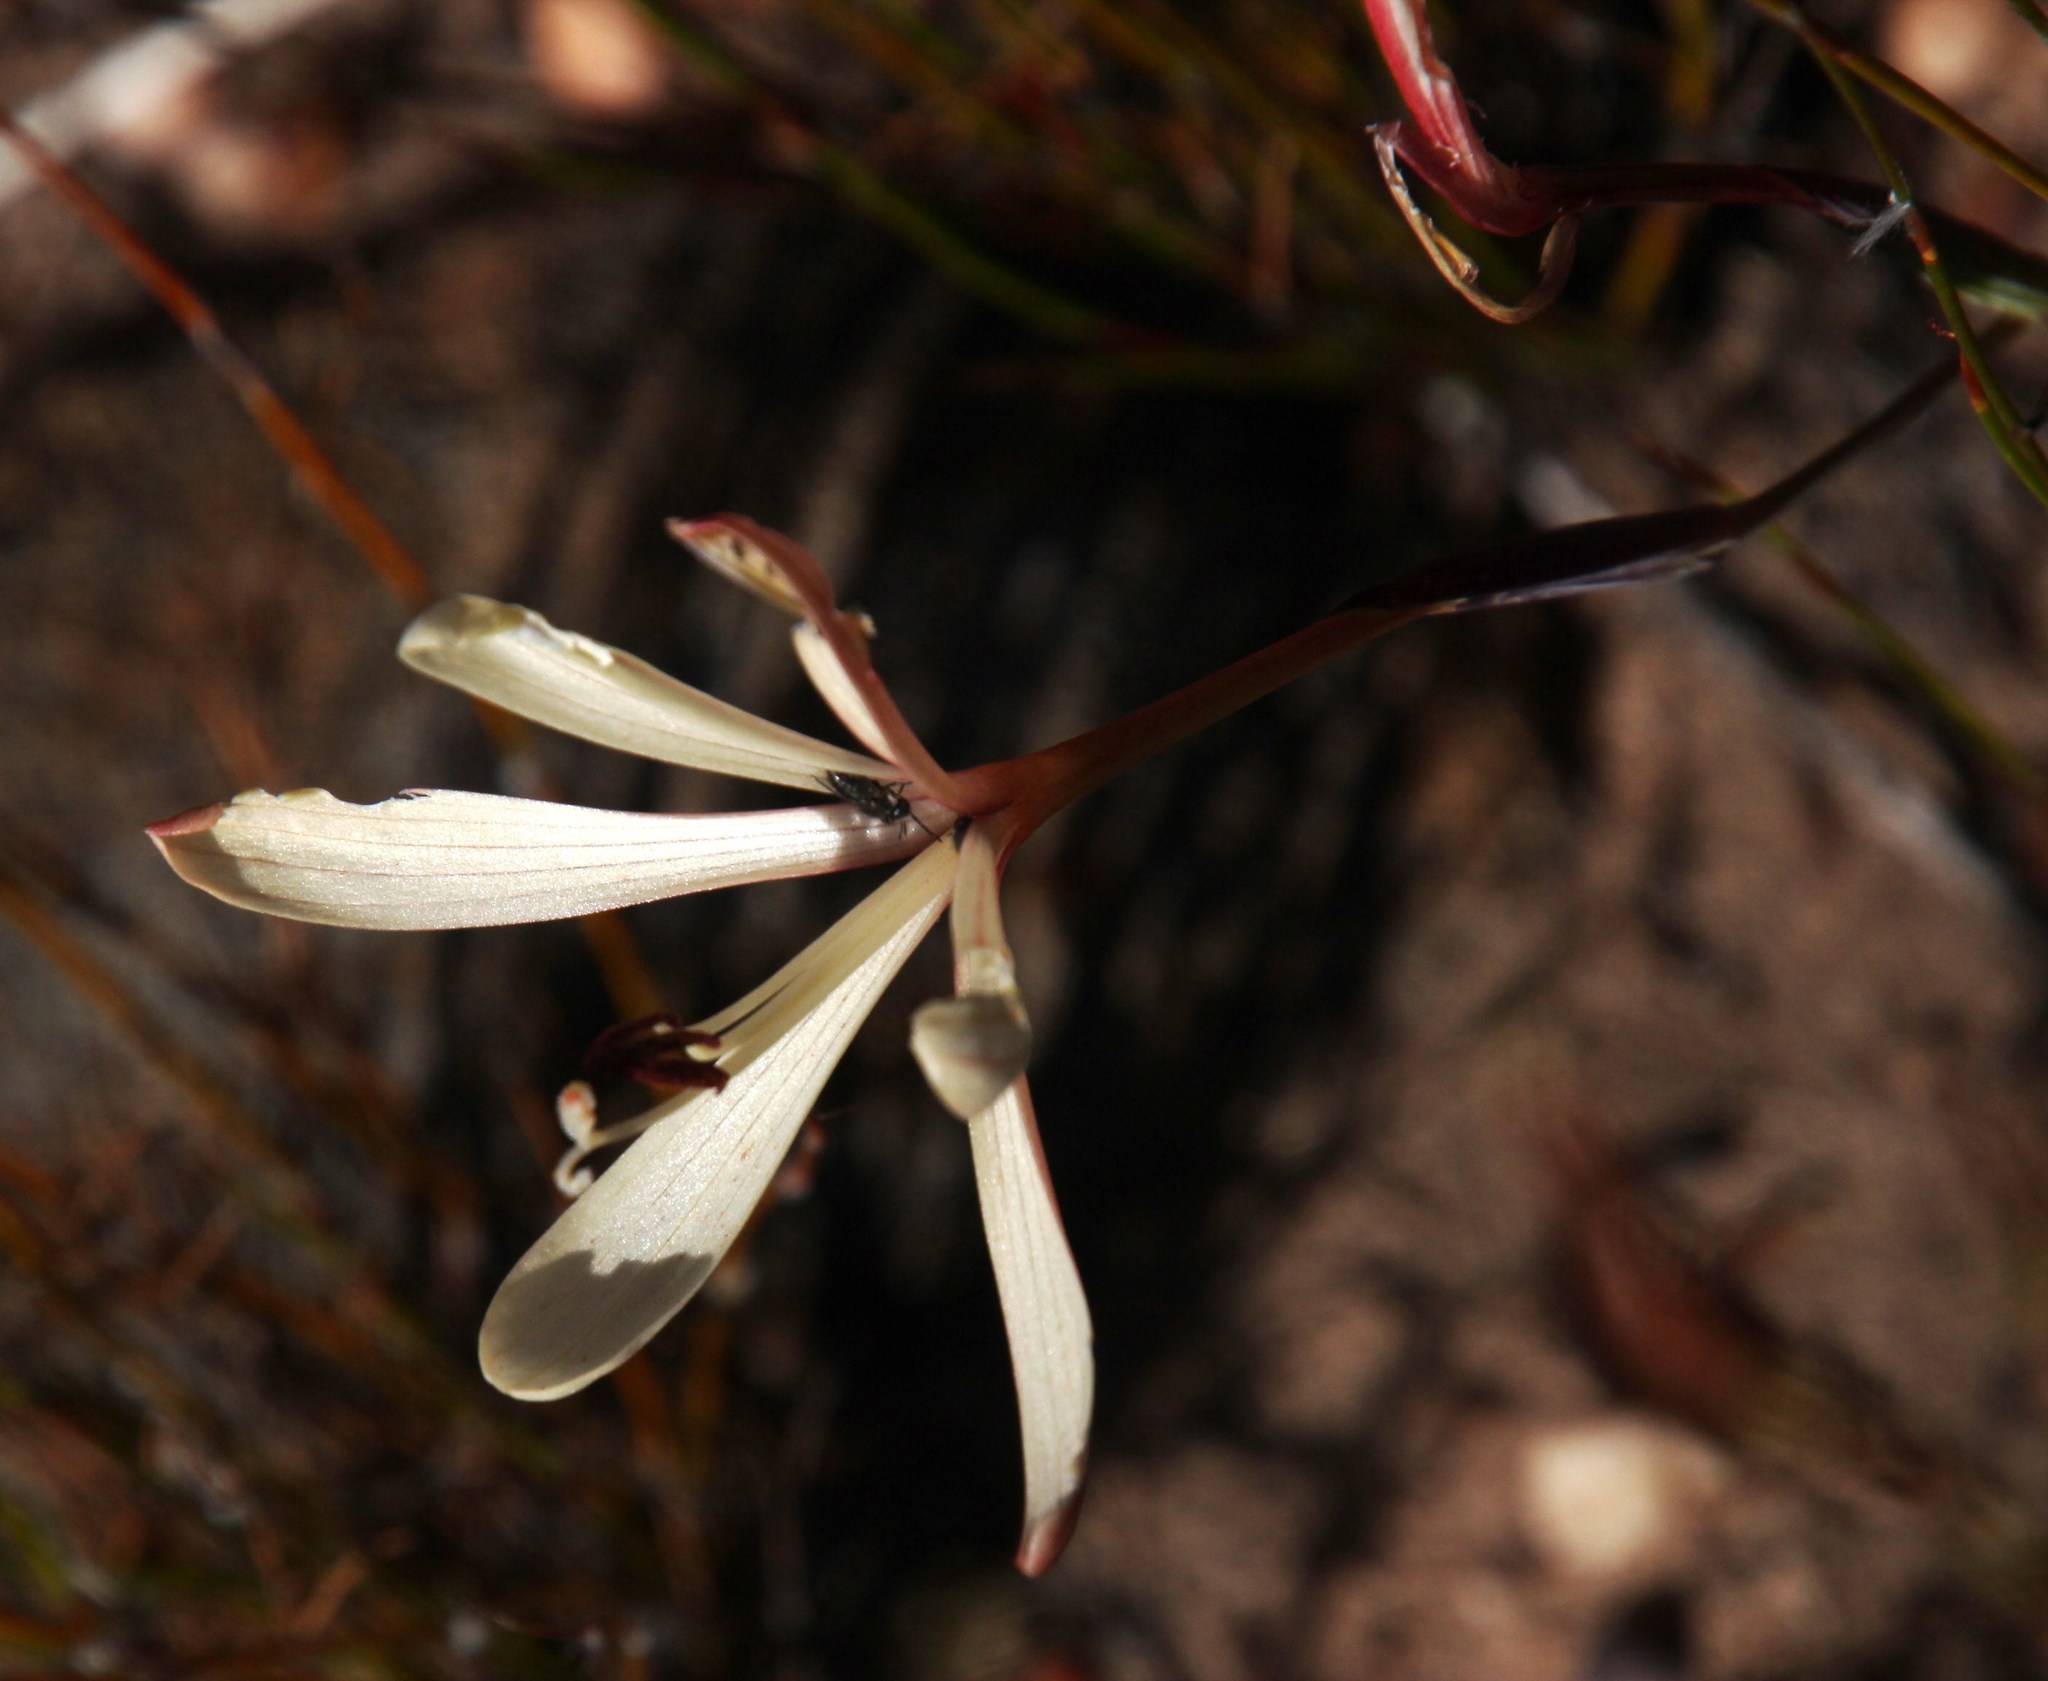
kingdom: Plantae
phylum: Tracheophyta
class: Liliopsida
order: Asparagales
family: Iridaceae
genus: Geissorhiza
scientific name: Geissorhiza confusa
